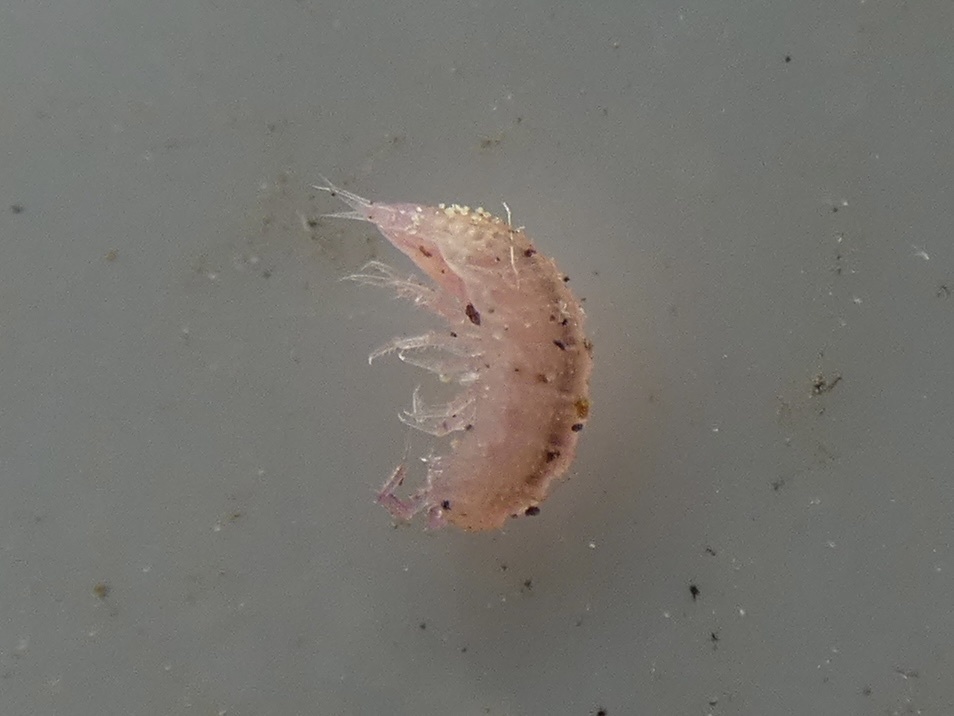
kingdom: Animalia
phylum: Arthropoda
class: Malacostraca
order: Isopoda
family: Trichoniscidae
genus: Androniscus
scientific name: Androniscus dentiger
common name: Rosy woodlouse
